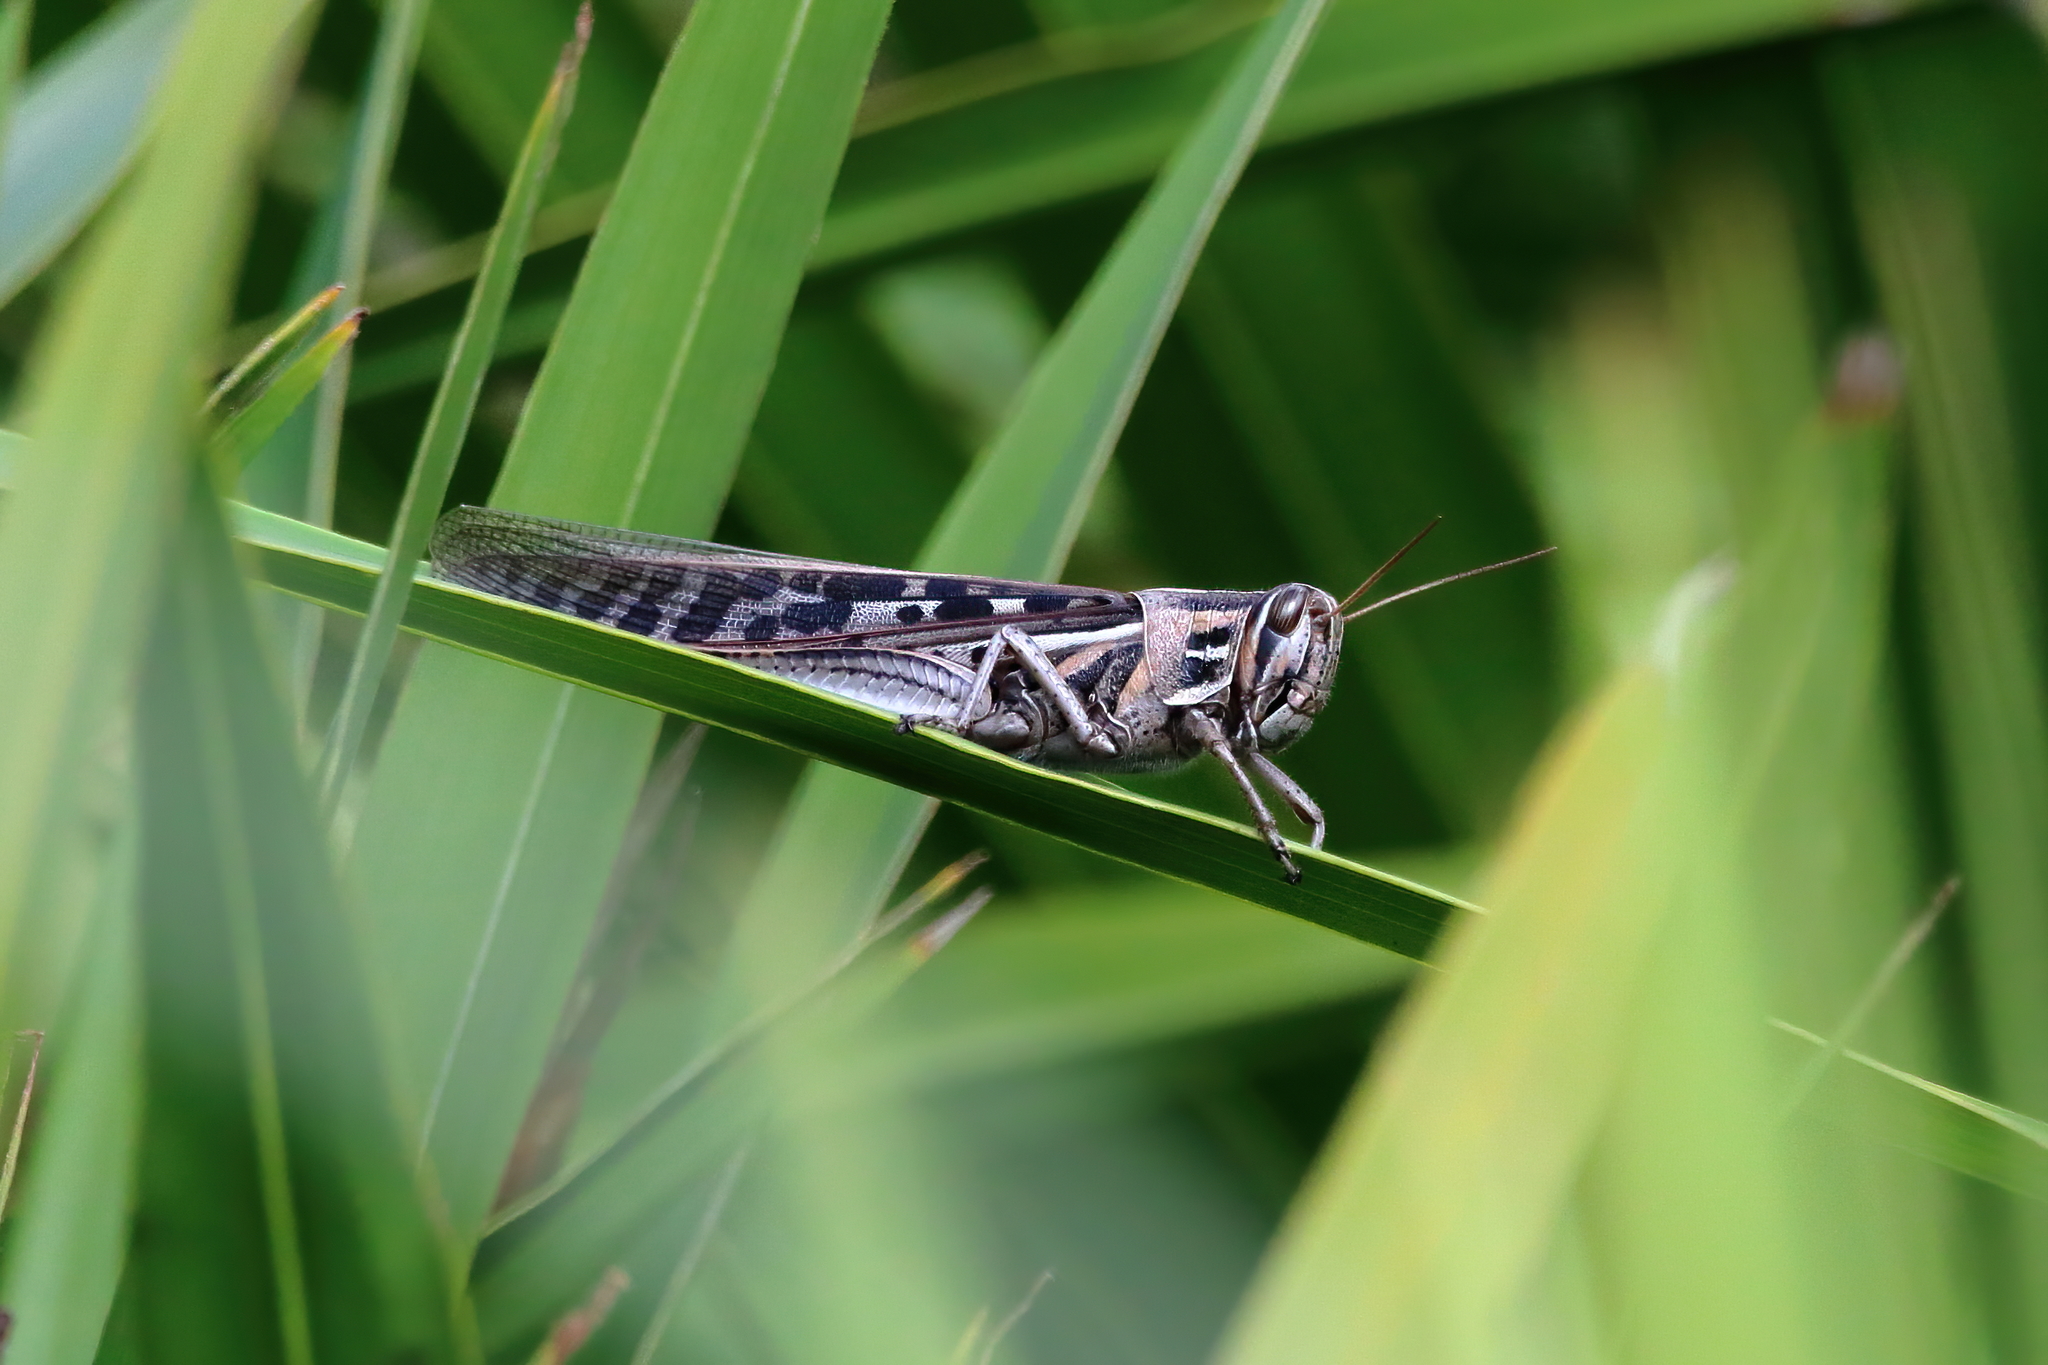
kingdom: Animalia
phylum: Arthropoda
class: Insecta
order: Orthoptera
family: Acrididae
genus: Schistocerca
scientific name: Schistocerca americana
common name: American bird locust
